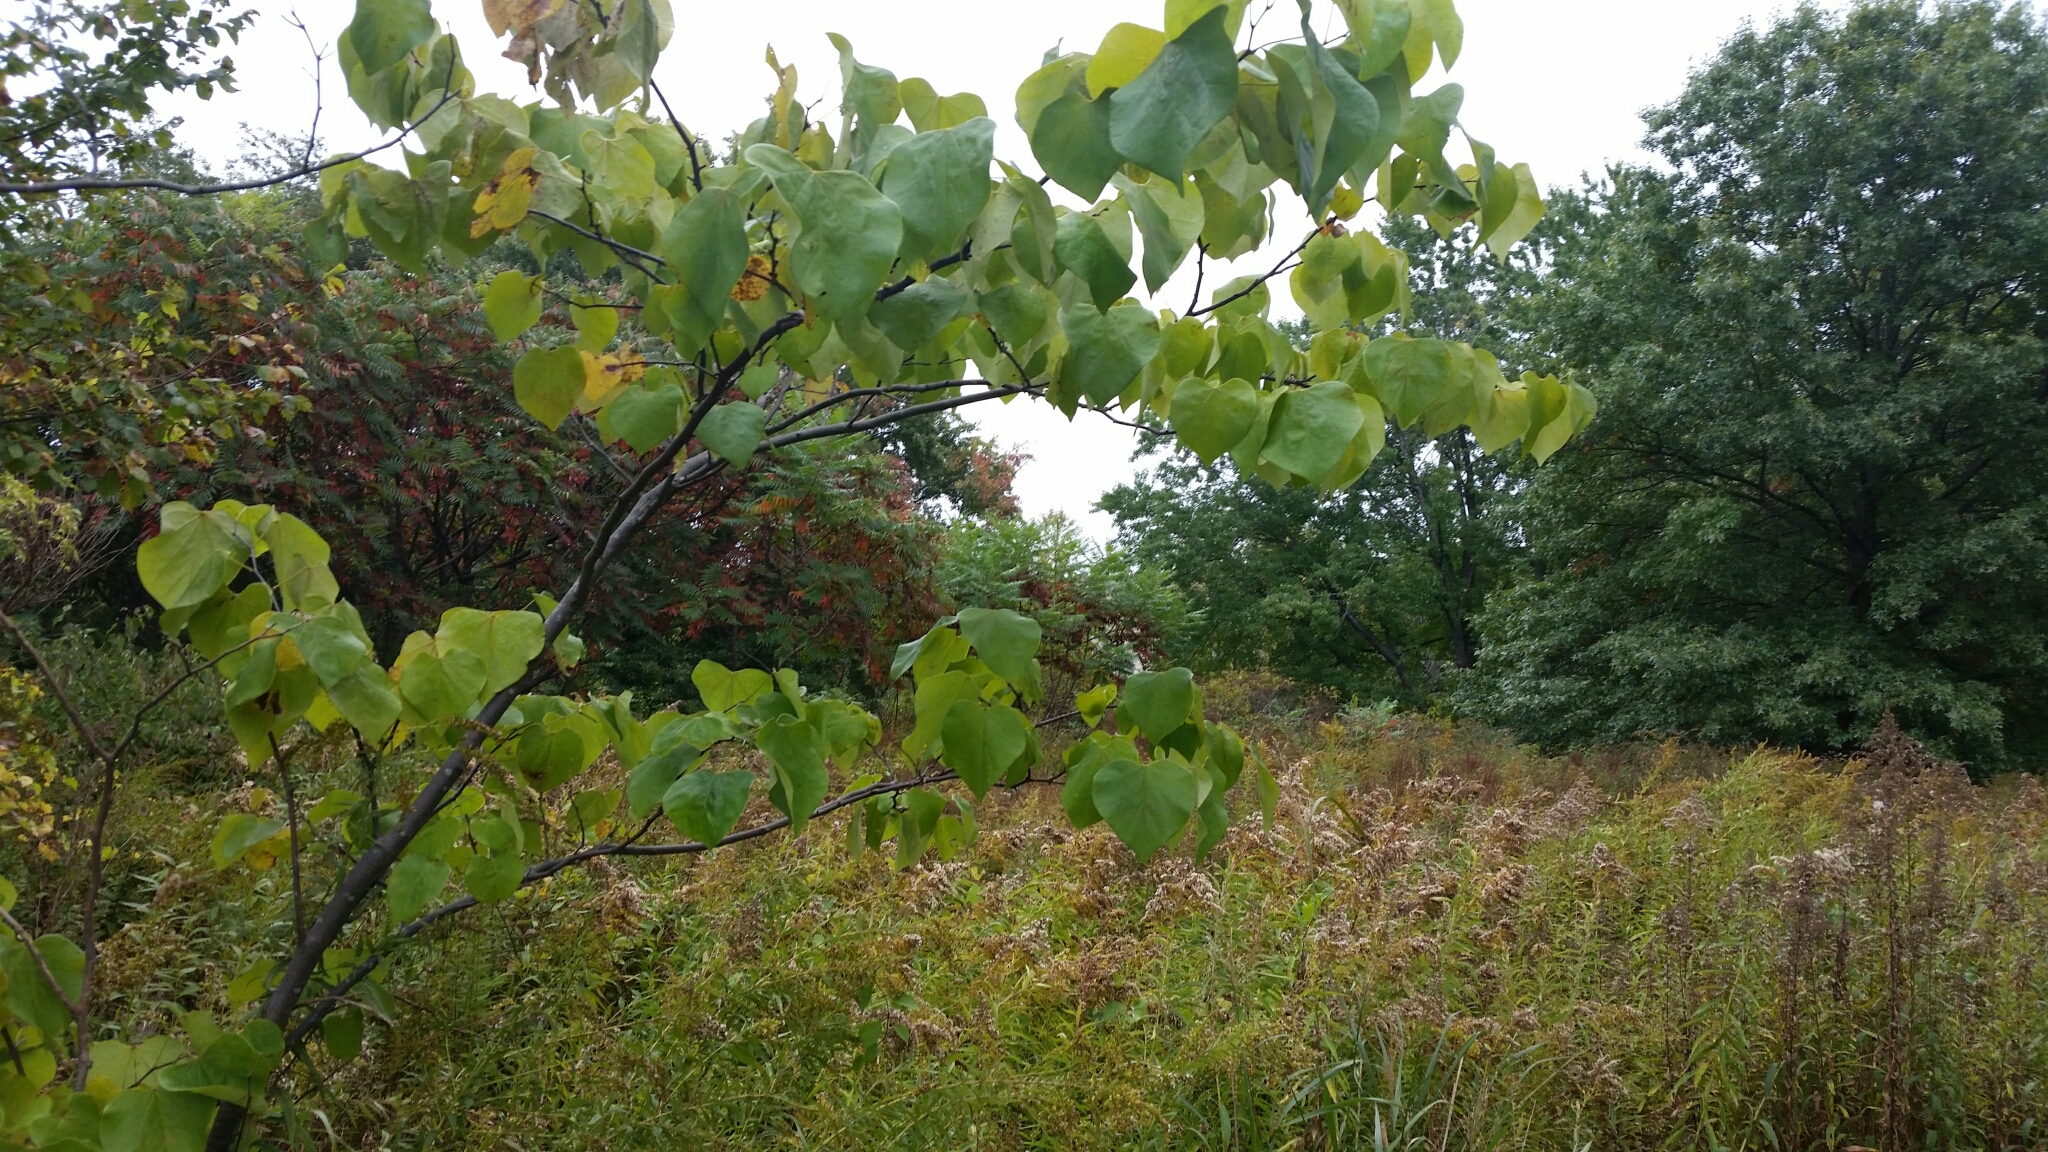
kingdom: Plantae
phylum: Tracheophyta
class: Magnoliopsida
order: Fabales
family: Fabaceae
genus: Cercis
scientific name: Cercis canadensis
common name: Eastern redbud
